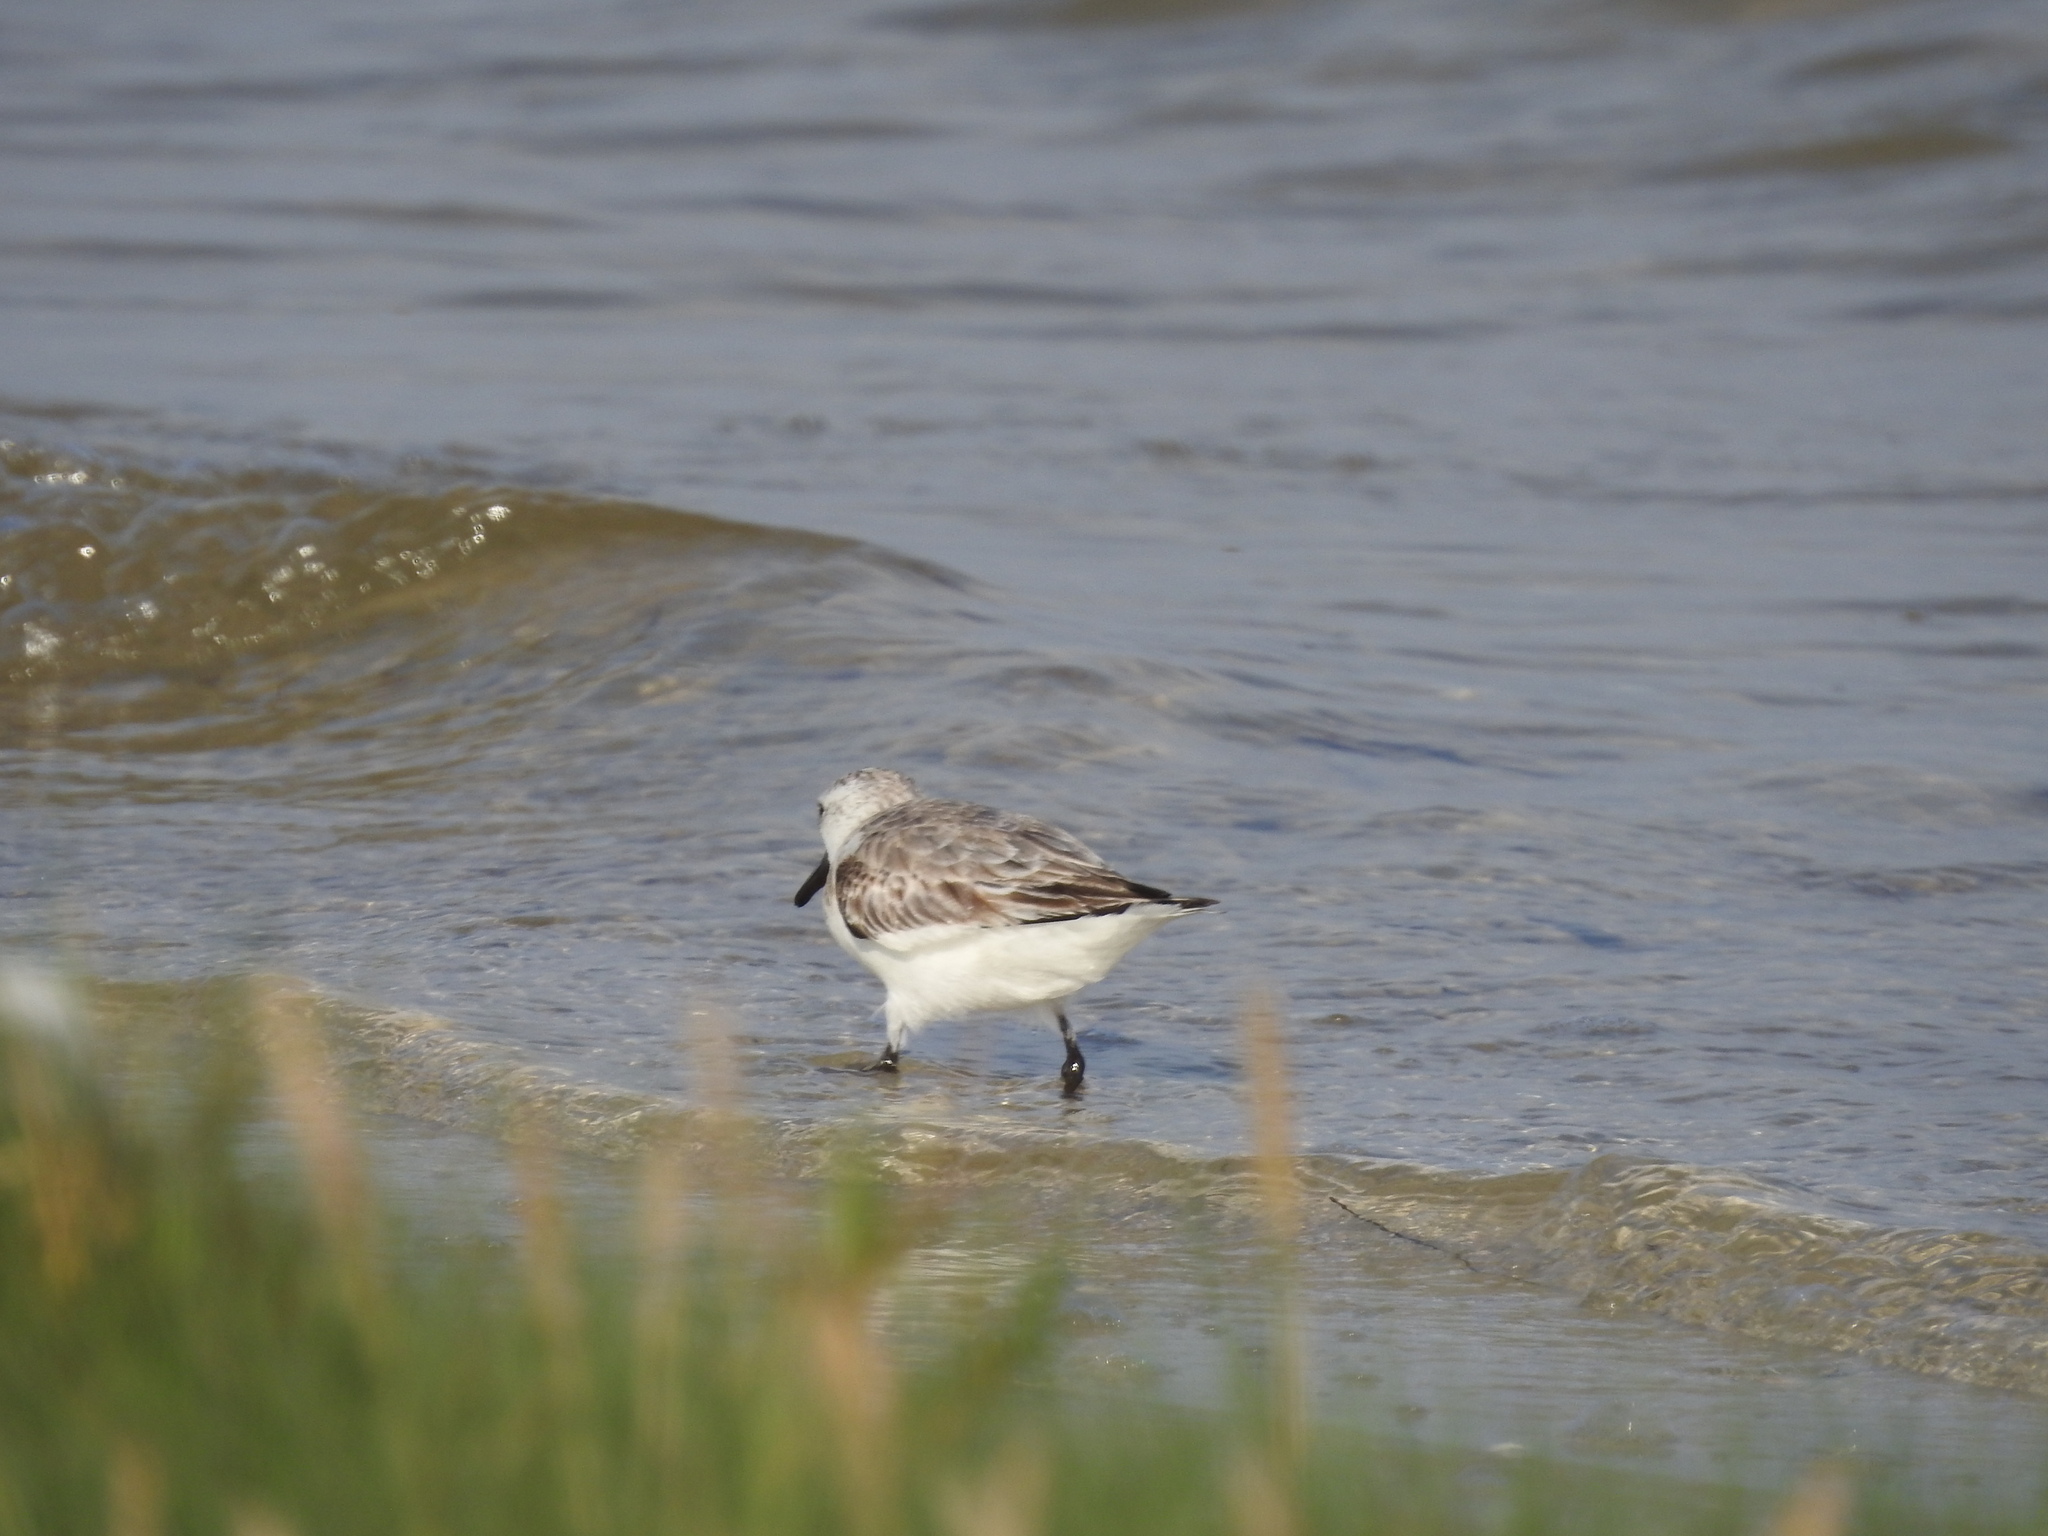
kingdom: Animalia
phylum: Chordata
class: Aves
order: Charadriiformes
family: Scolopacidae
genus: Calidris
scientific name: Calidris alba
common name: Sanderling
